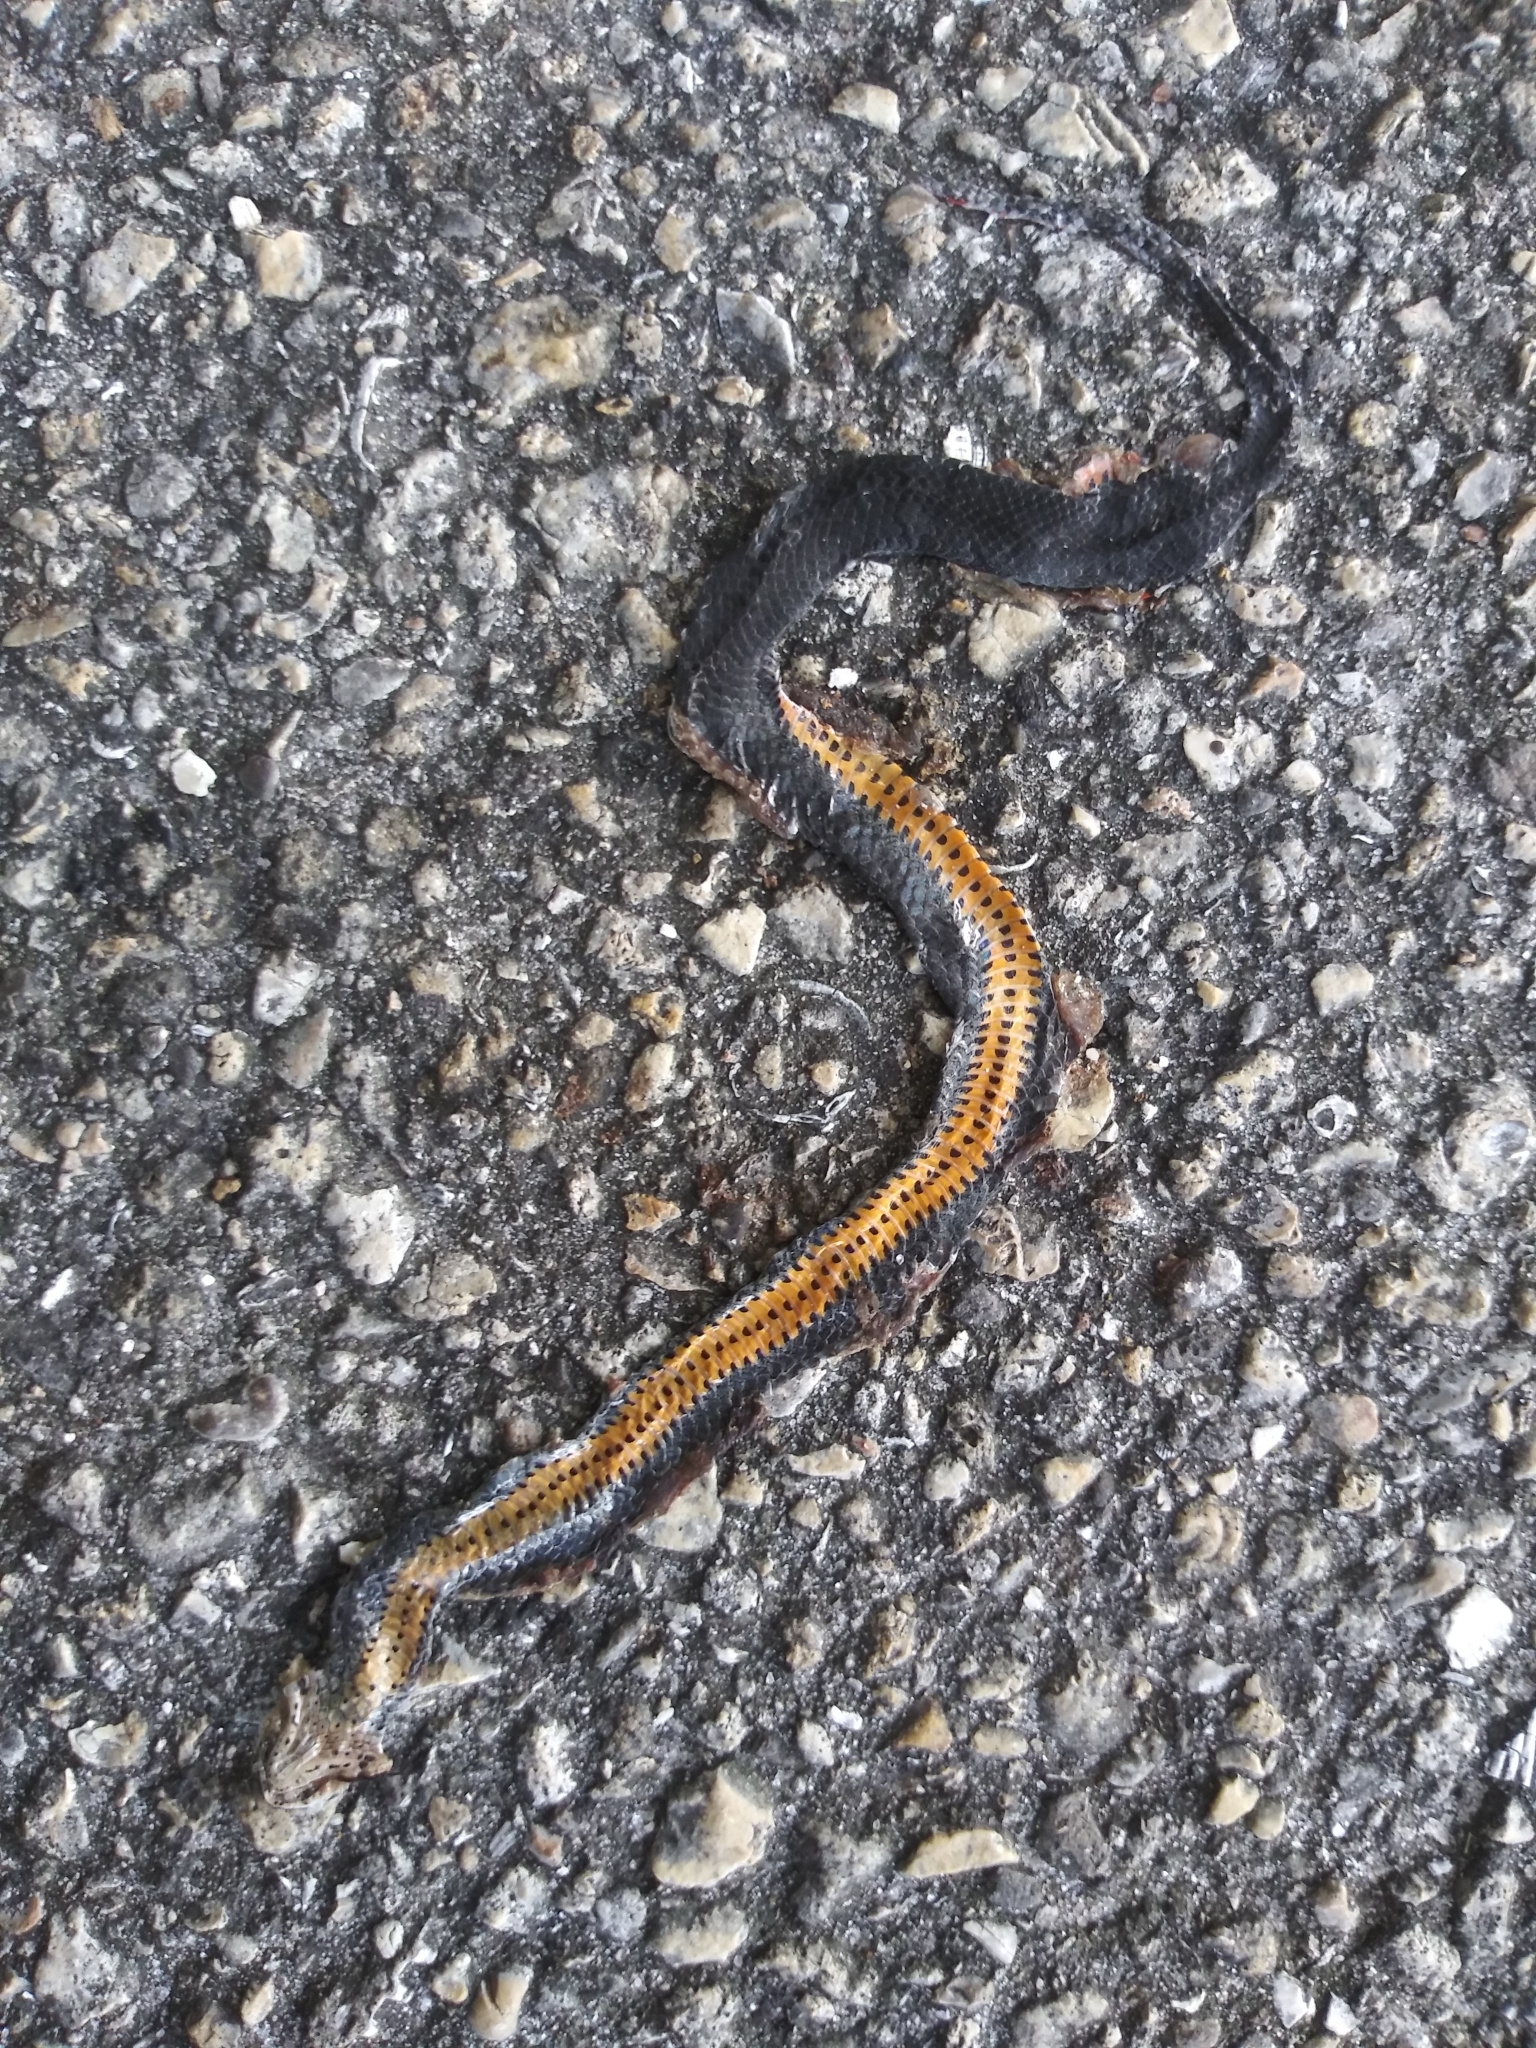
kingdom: Animalia
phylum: Chordata
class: Squamata
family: Colubridae
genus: Diadophis
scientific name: Diadophis punctatus
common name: Ringneck snake
